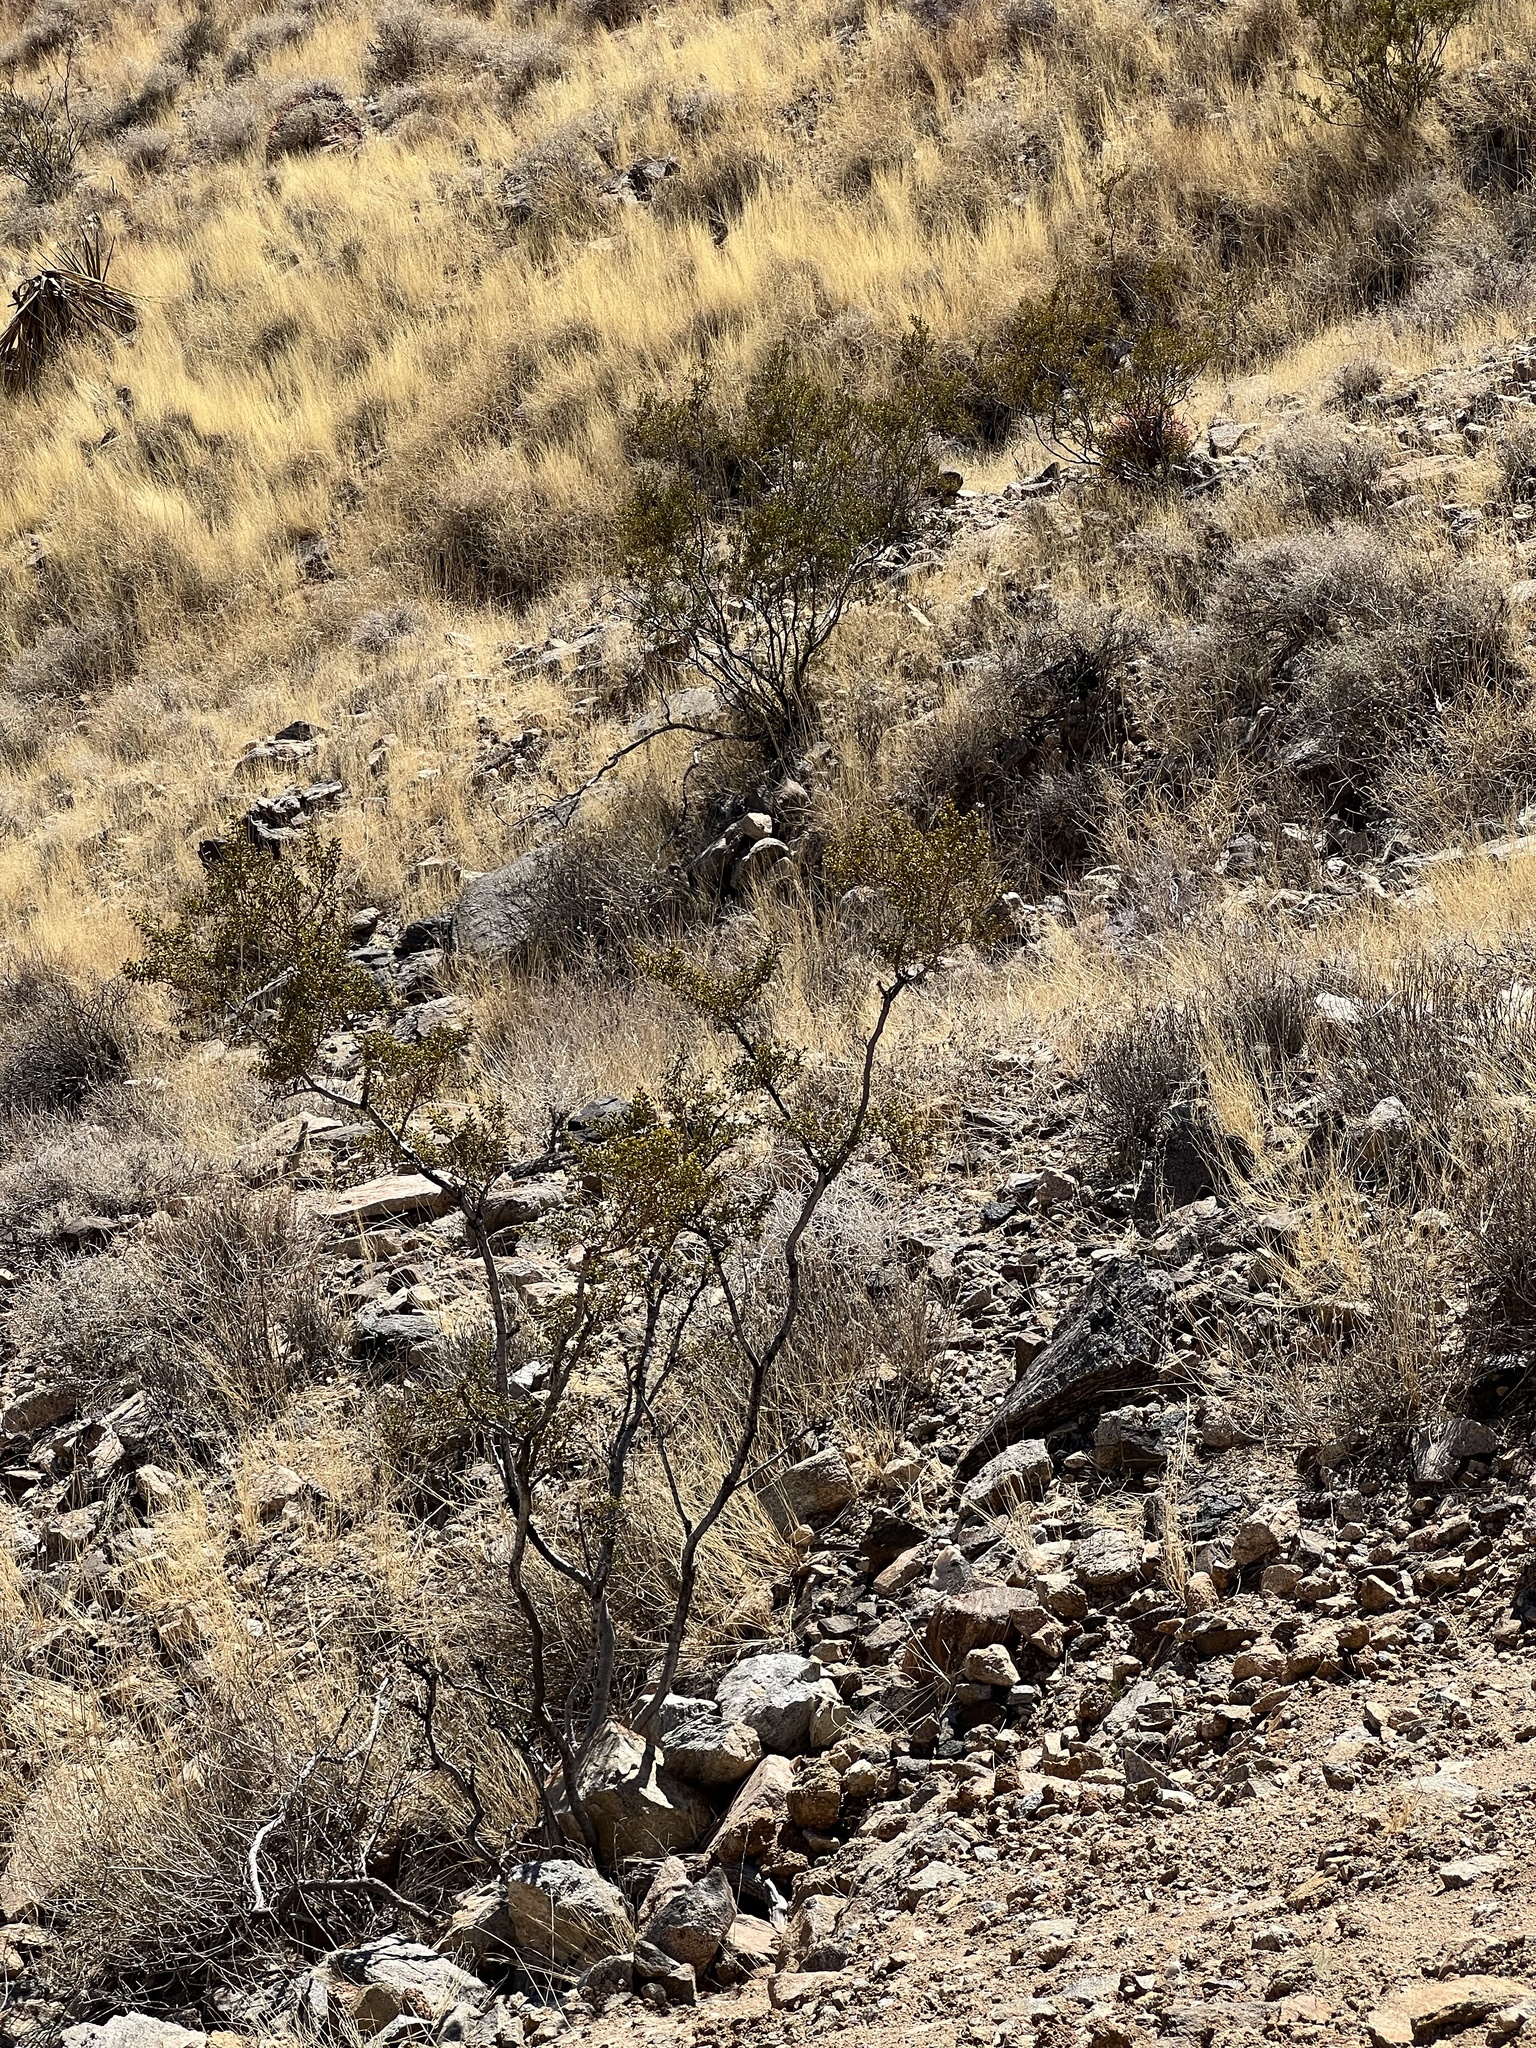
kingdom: Plantae
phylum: Tracheophyta
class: Magnoliopsida
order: Zygophyllales
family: Zygophyllaceae
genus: Larrea
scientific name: Larrea tridentata
